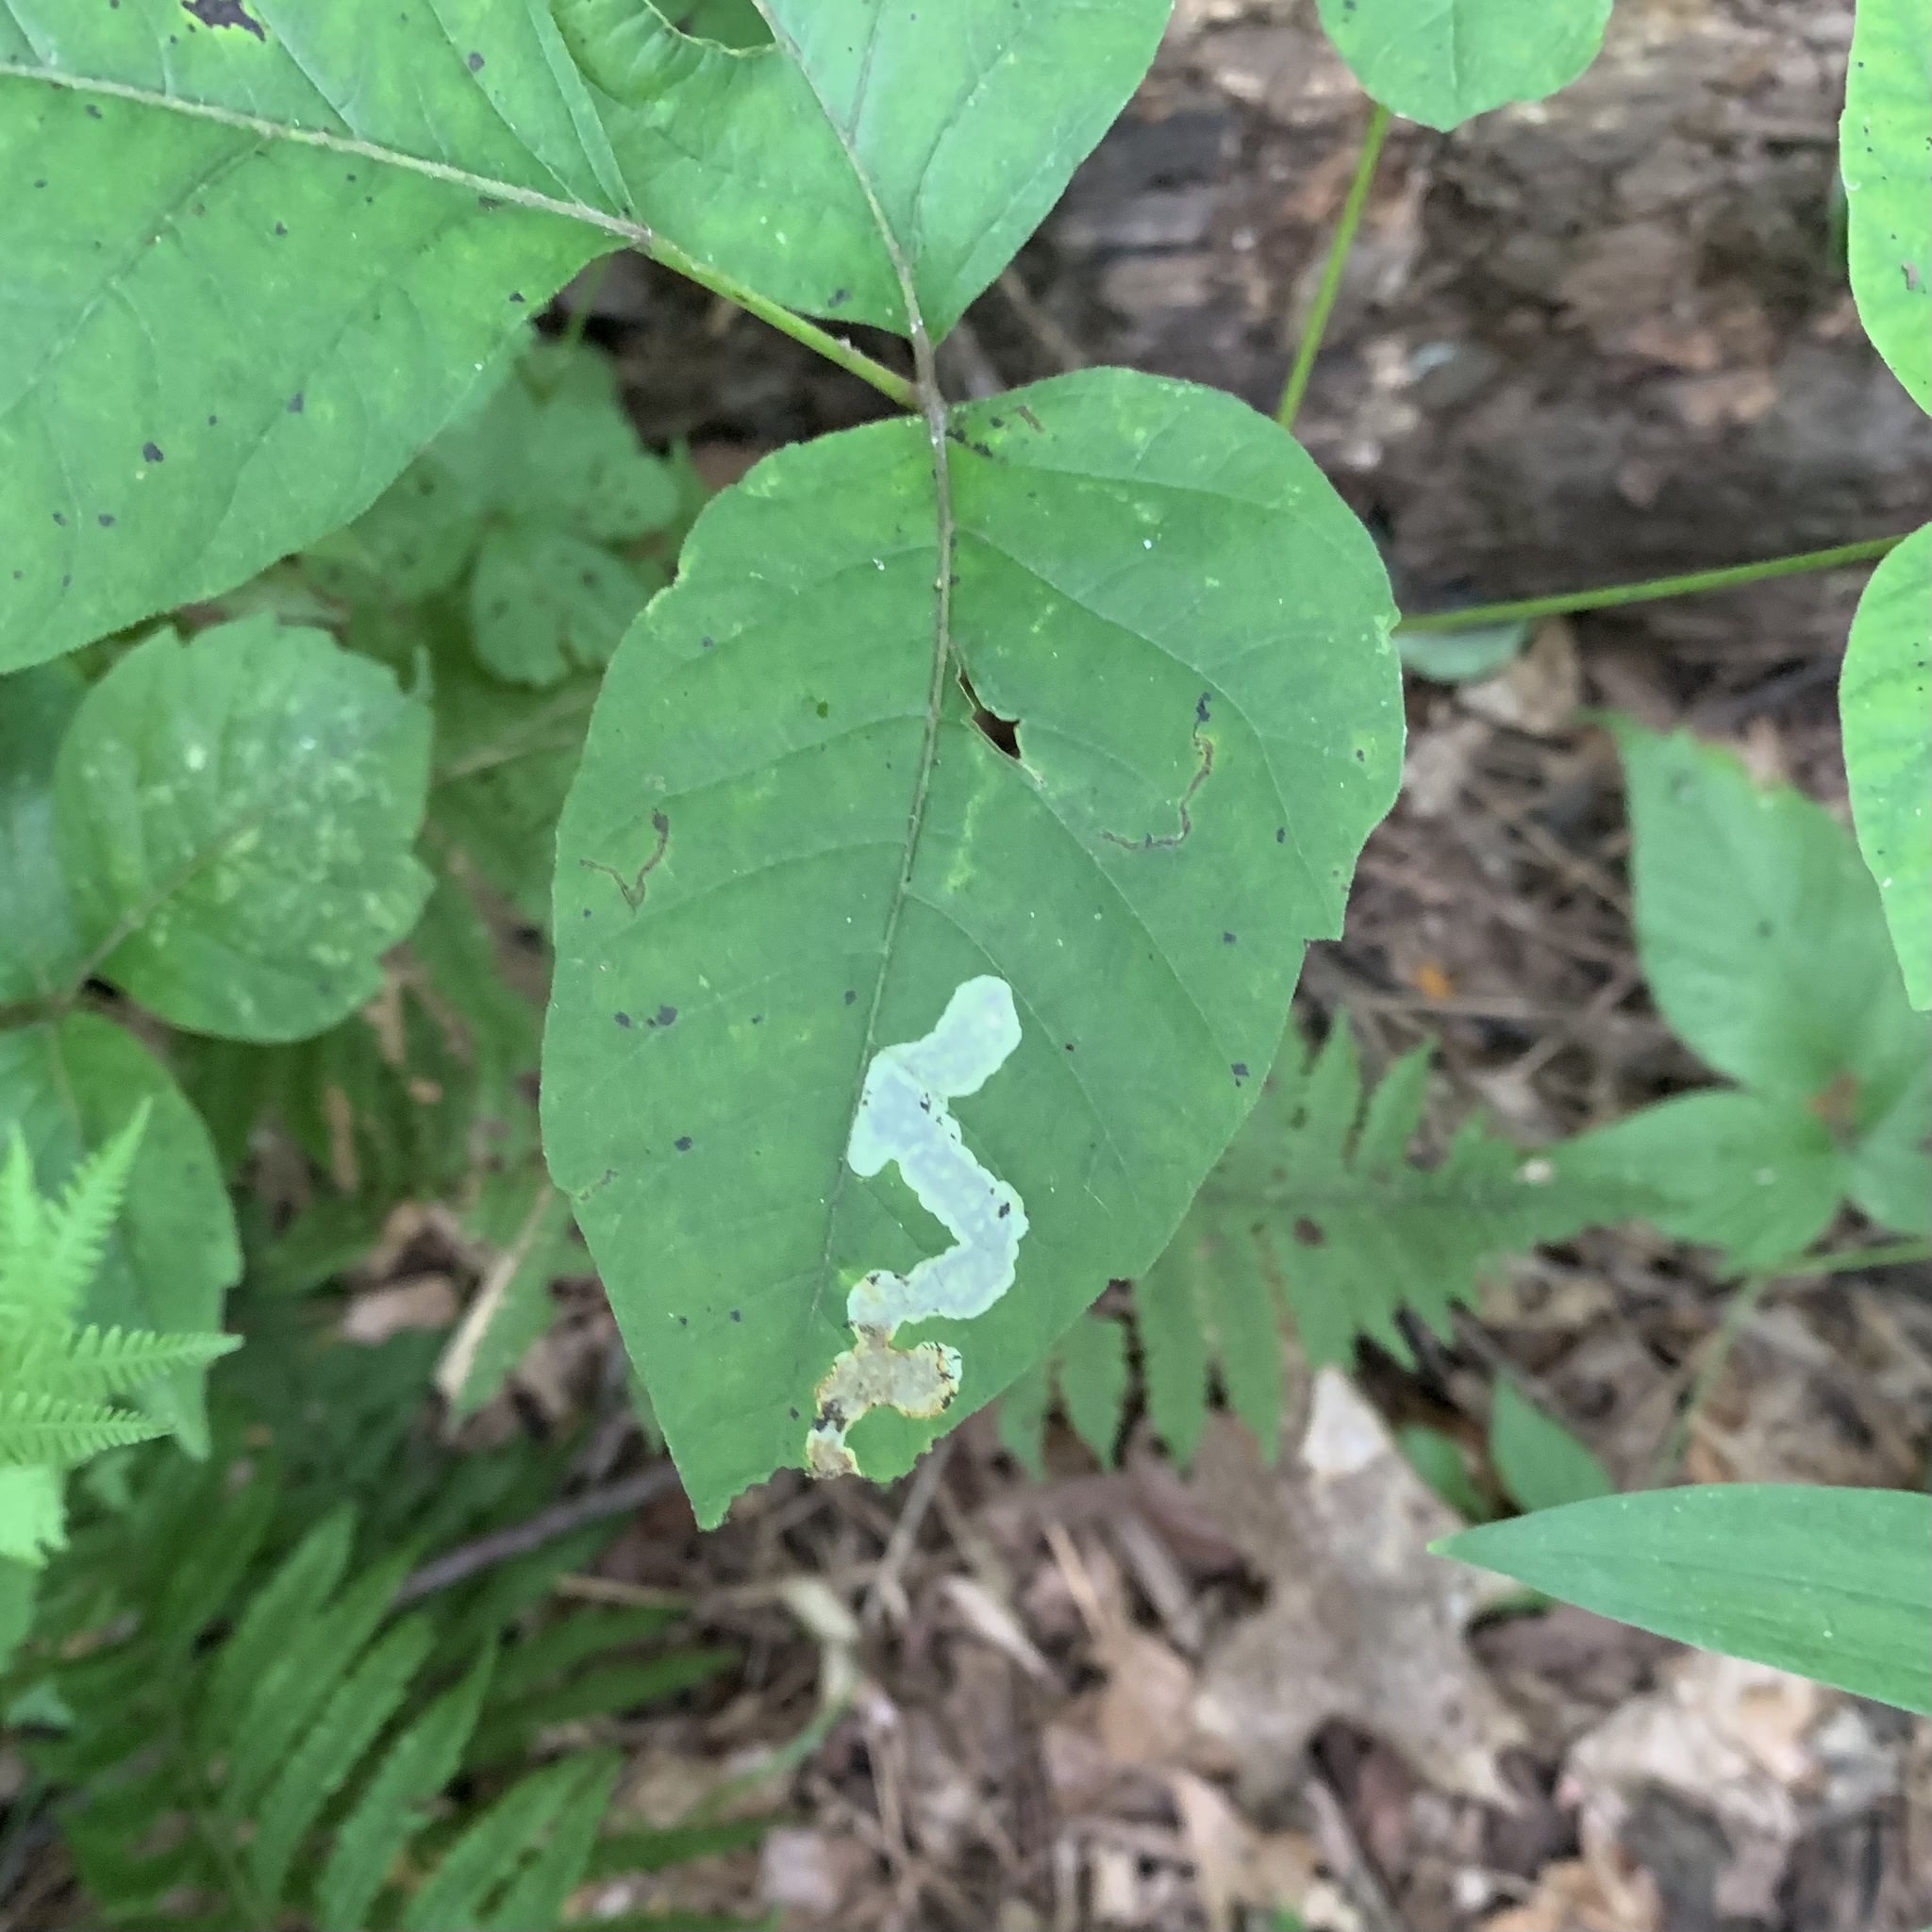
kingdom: Animalia
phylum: Arthropoda
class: Insecta
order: Lepidoptera
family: Gracillariidae
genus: Cameraria
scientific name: Cameraria guttifinitella
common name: Poison ivy leaf-miner moth
